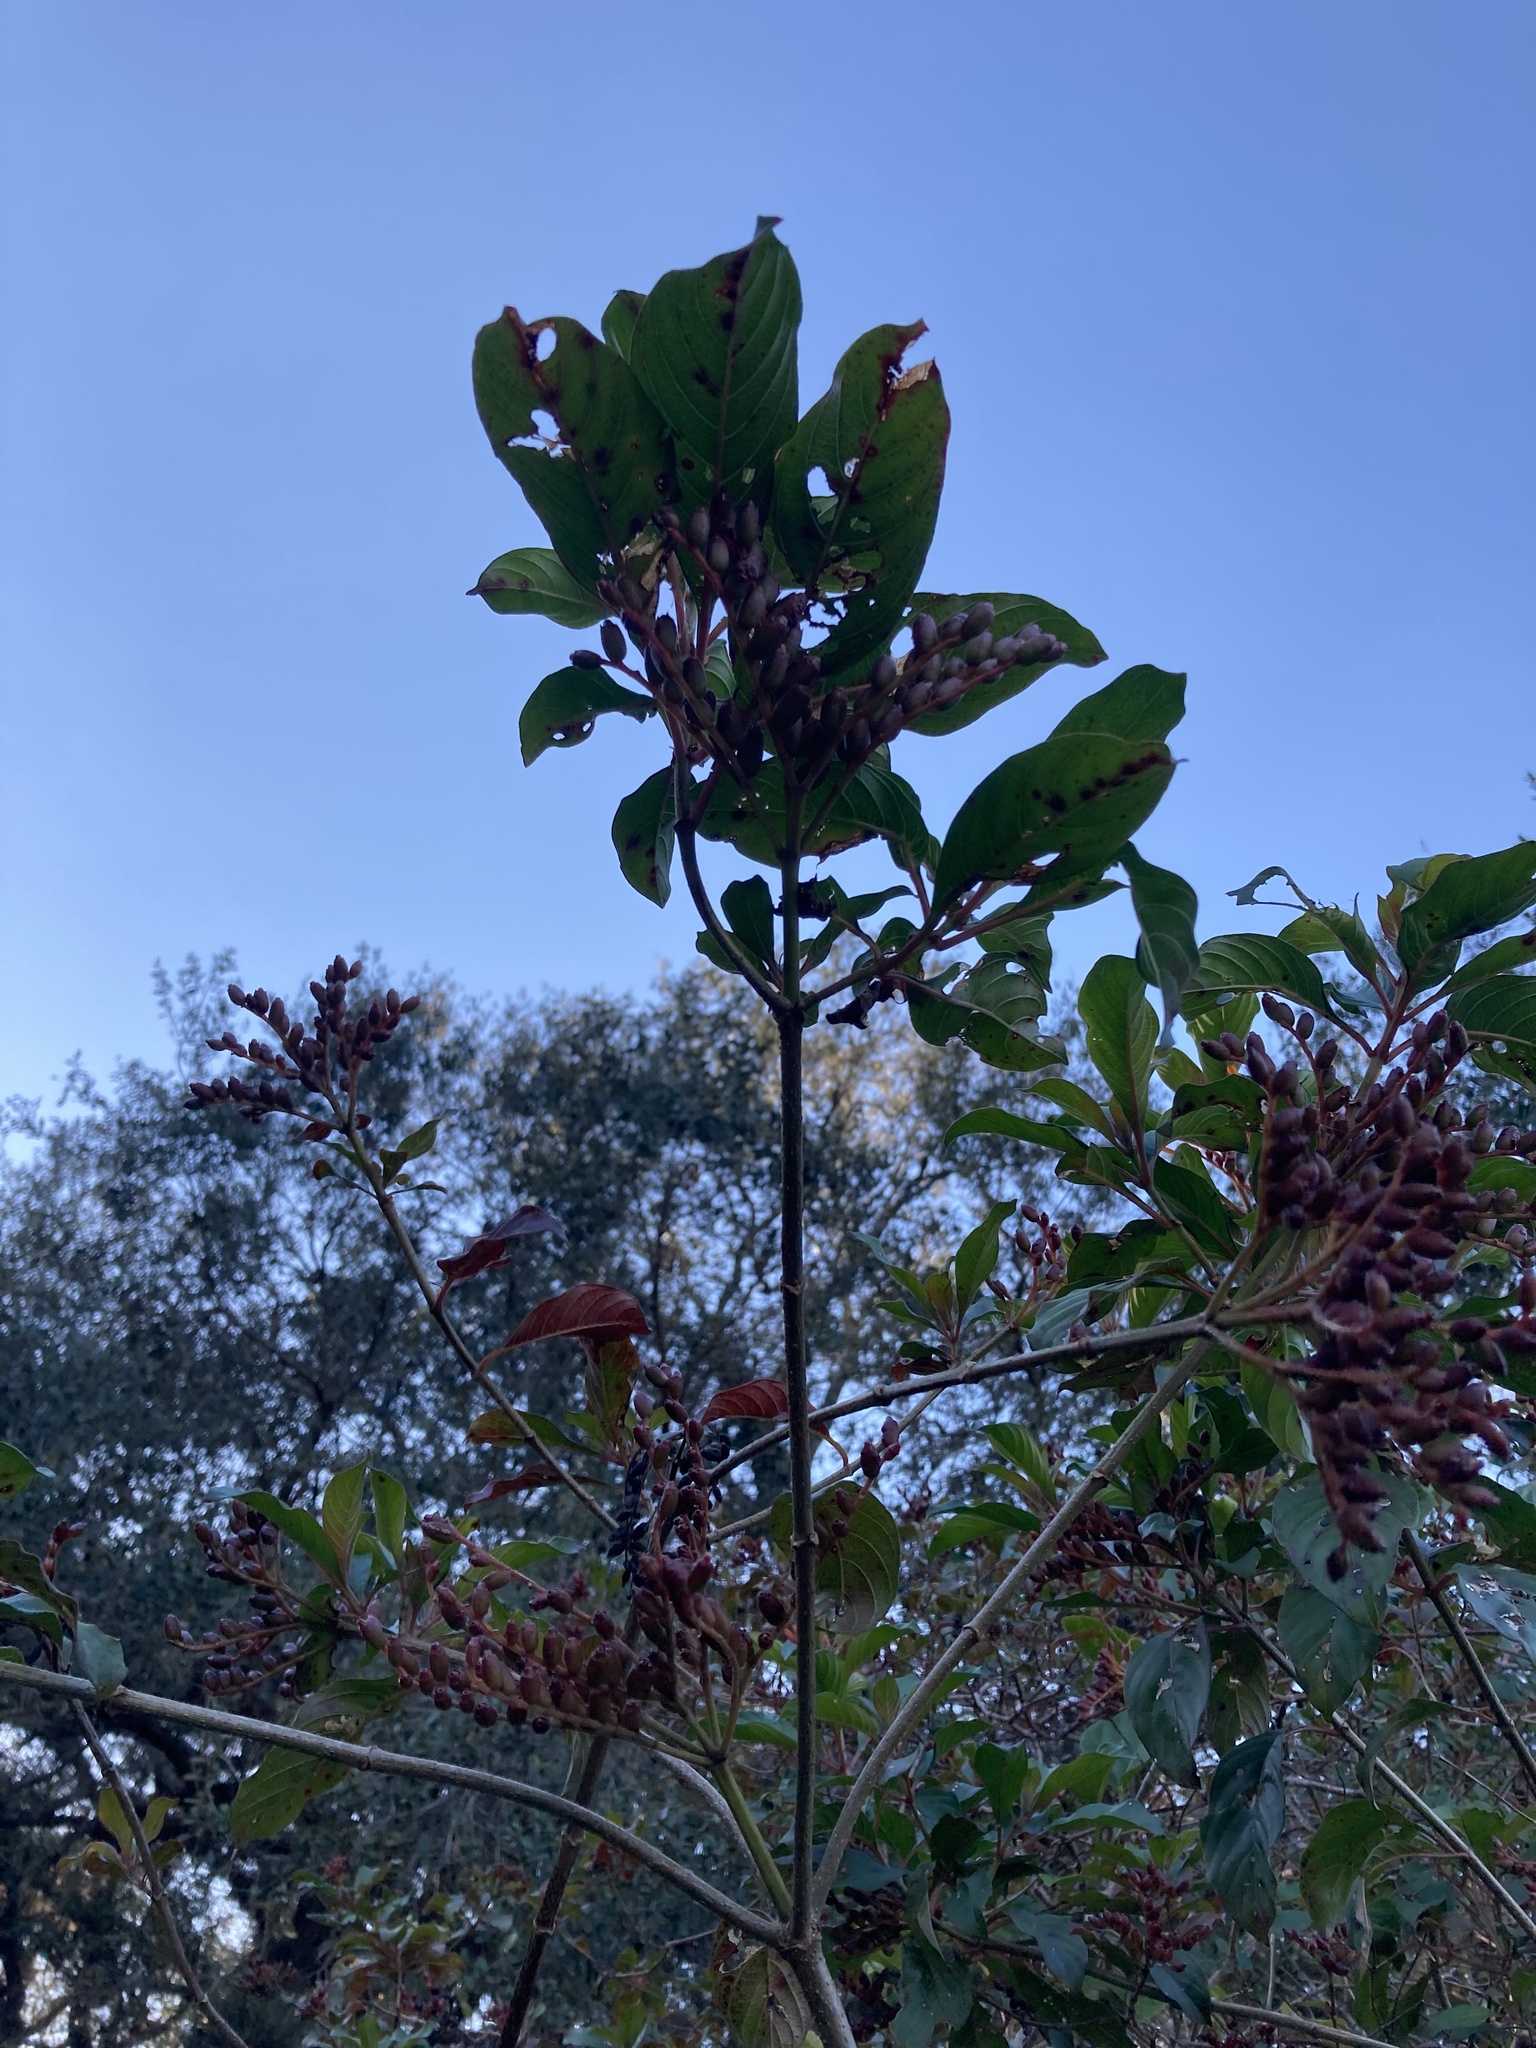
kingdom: Plantae
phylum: Tracheophyta
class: Magnoliopsida
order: Gentianales
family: Rubiaceae
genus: Hamelia
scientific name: Hamelia patens
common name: Redhead
